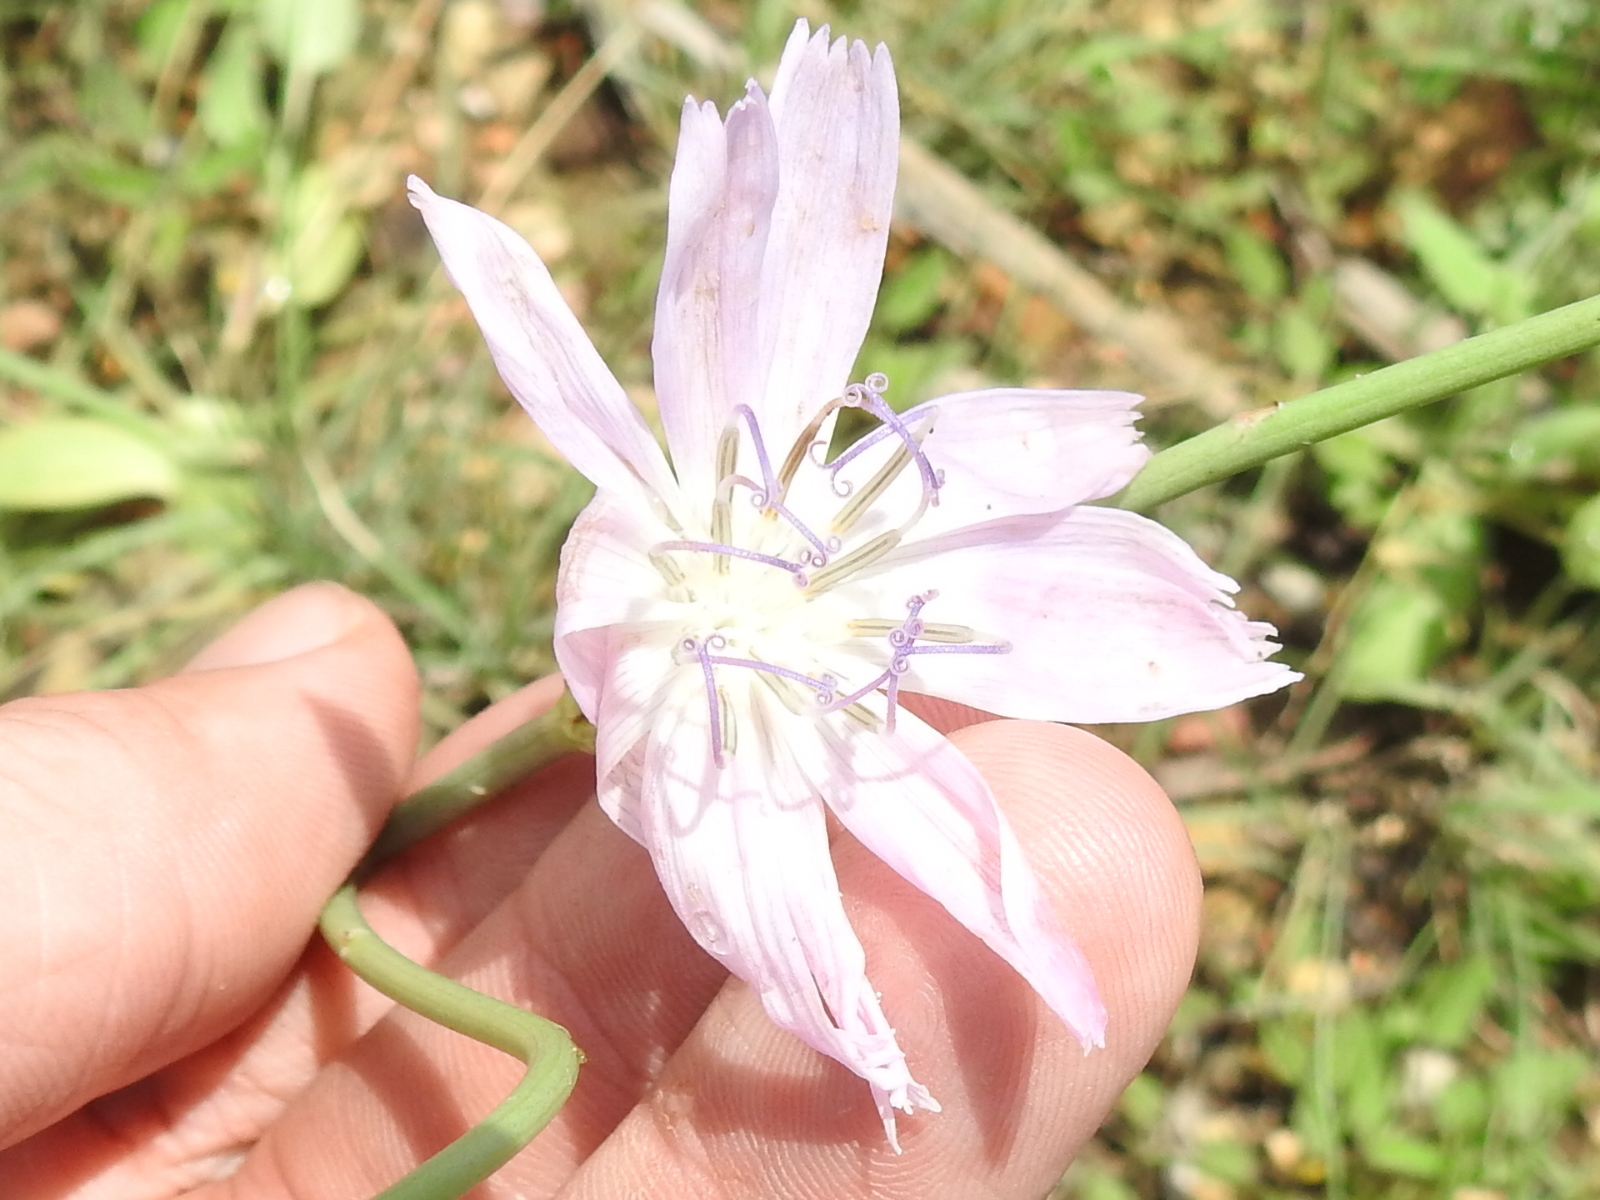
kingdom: Plantae
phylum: Tracheophyta
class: Magnoliopsida
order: Asterales
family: Asteraceae
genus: Lygodesmia
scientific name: Lygodesmia texana
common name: Texas skeleton-plant
